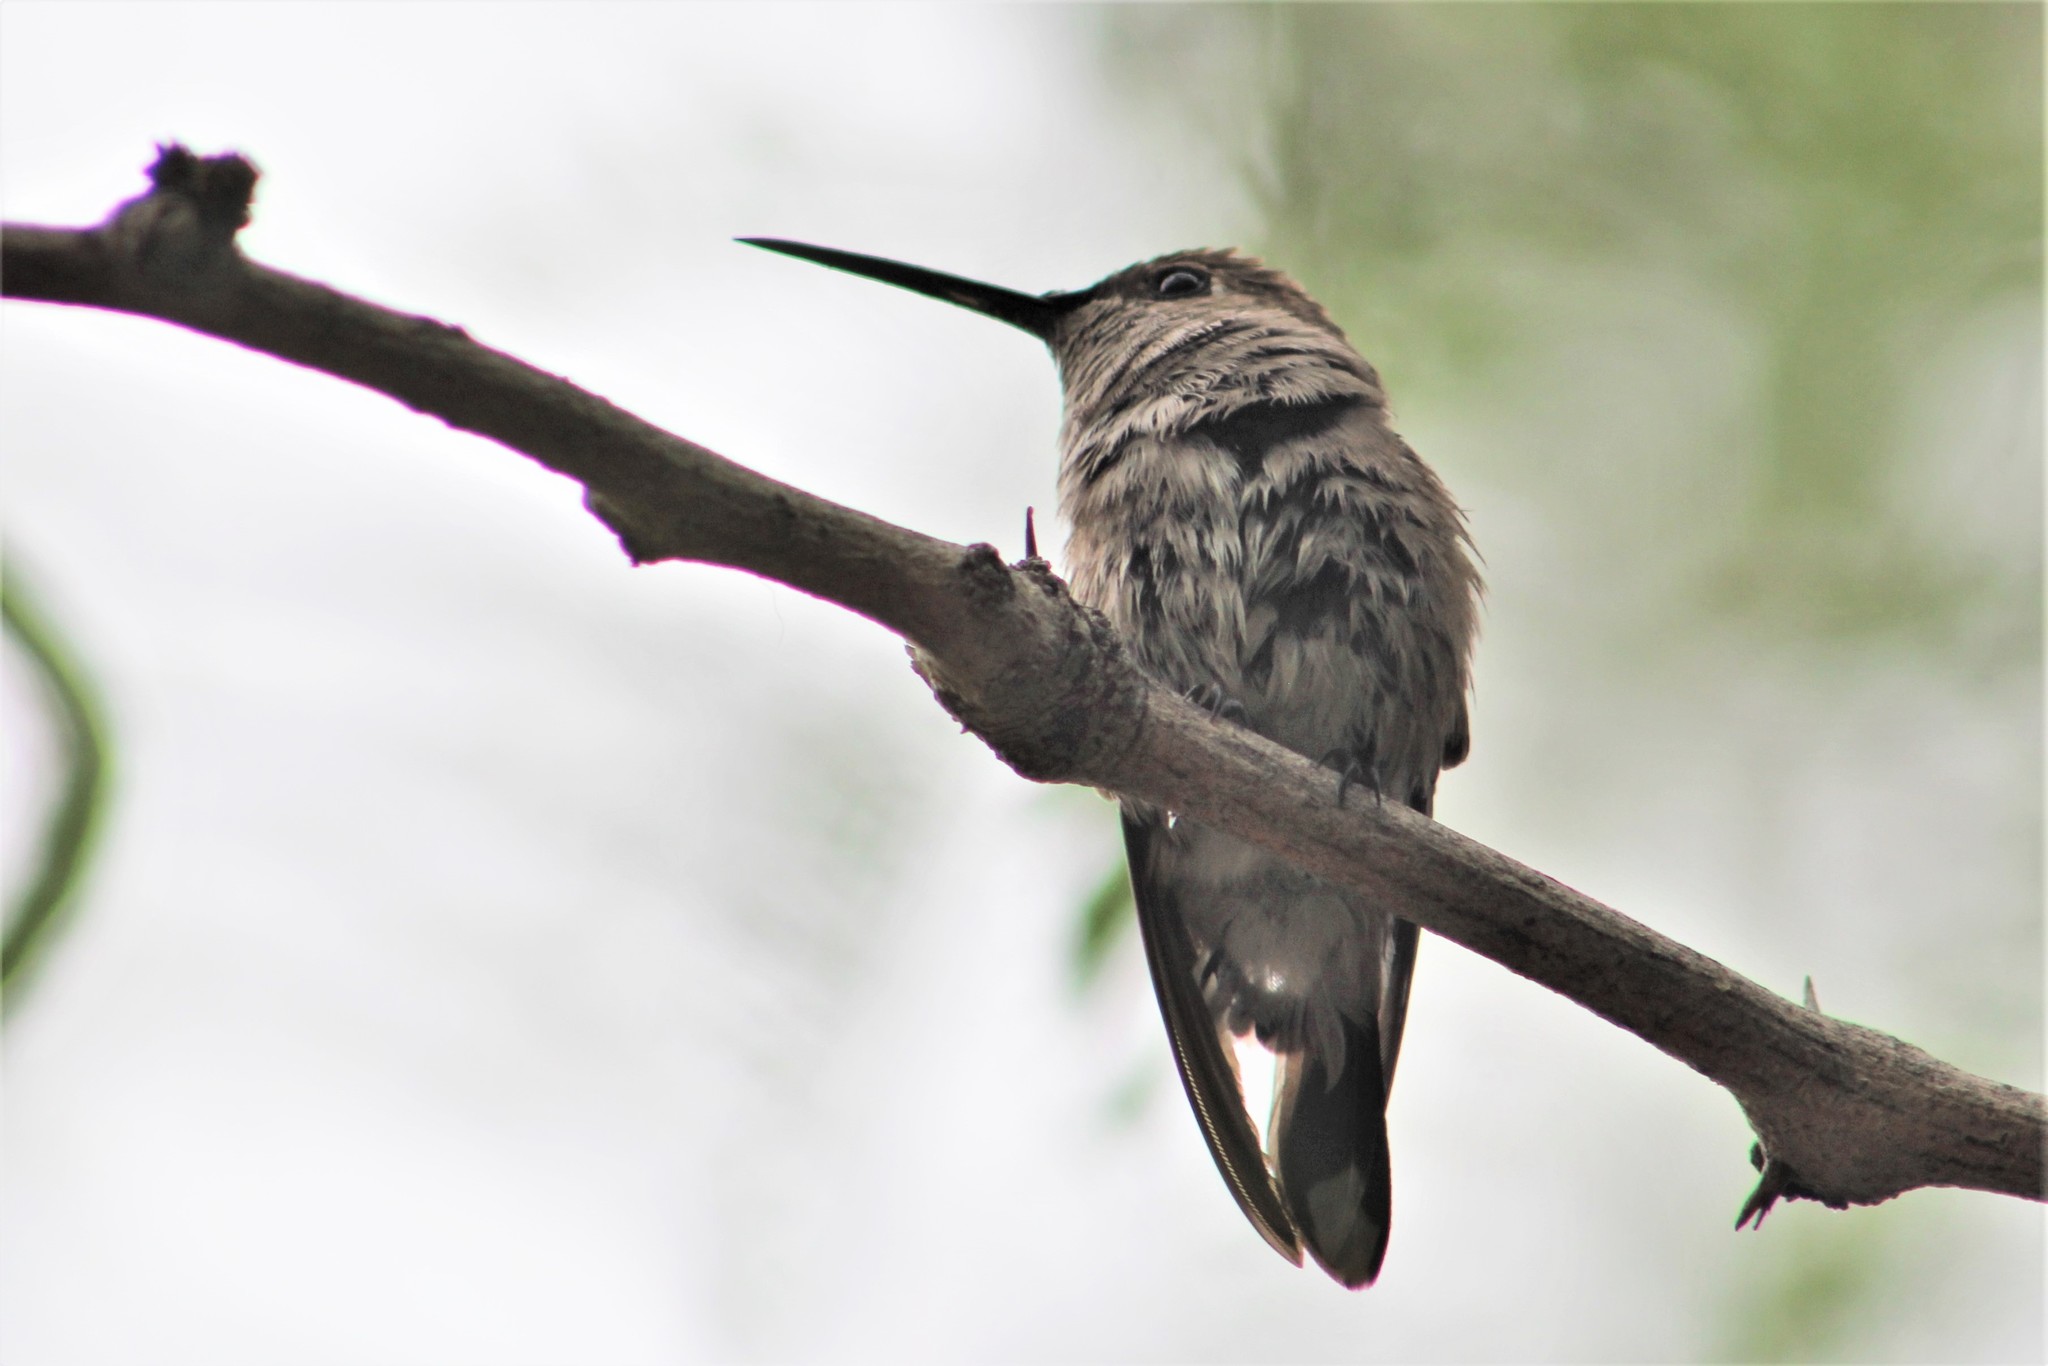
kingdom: Animalia
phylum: Chordata
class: Aves
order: Apodiformes
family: Trochilidae
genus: Archilochus
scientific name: Archilochus alexandri
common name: Black-chinned hummingbird
